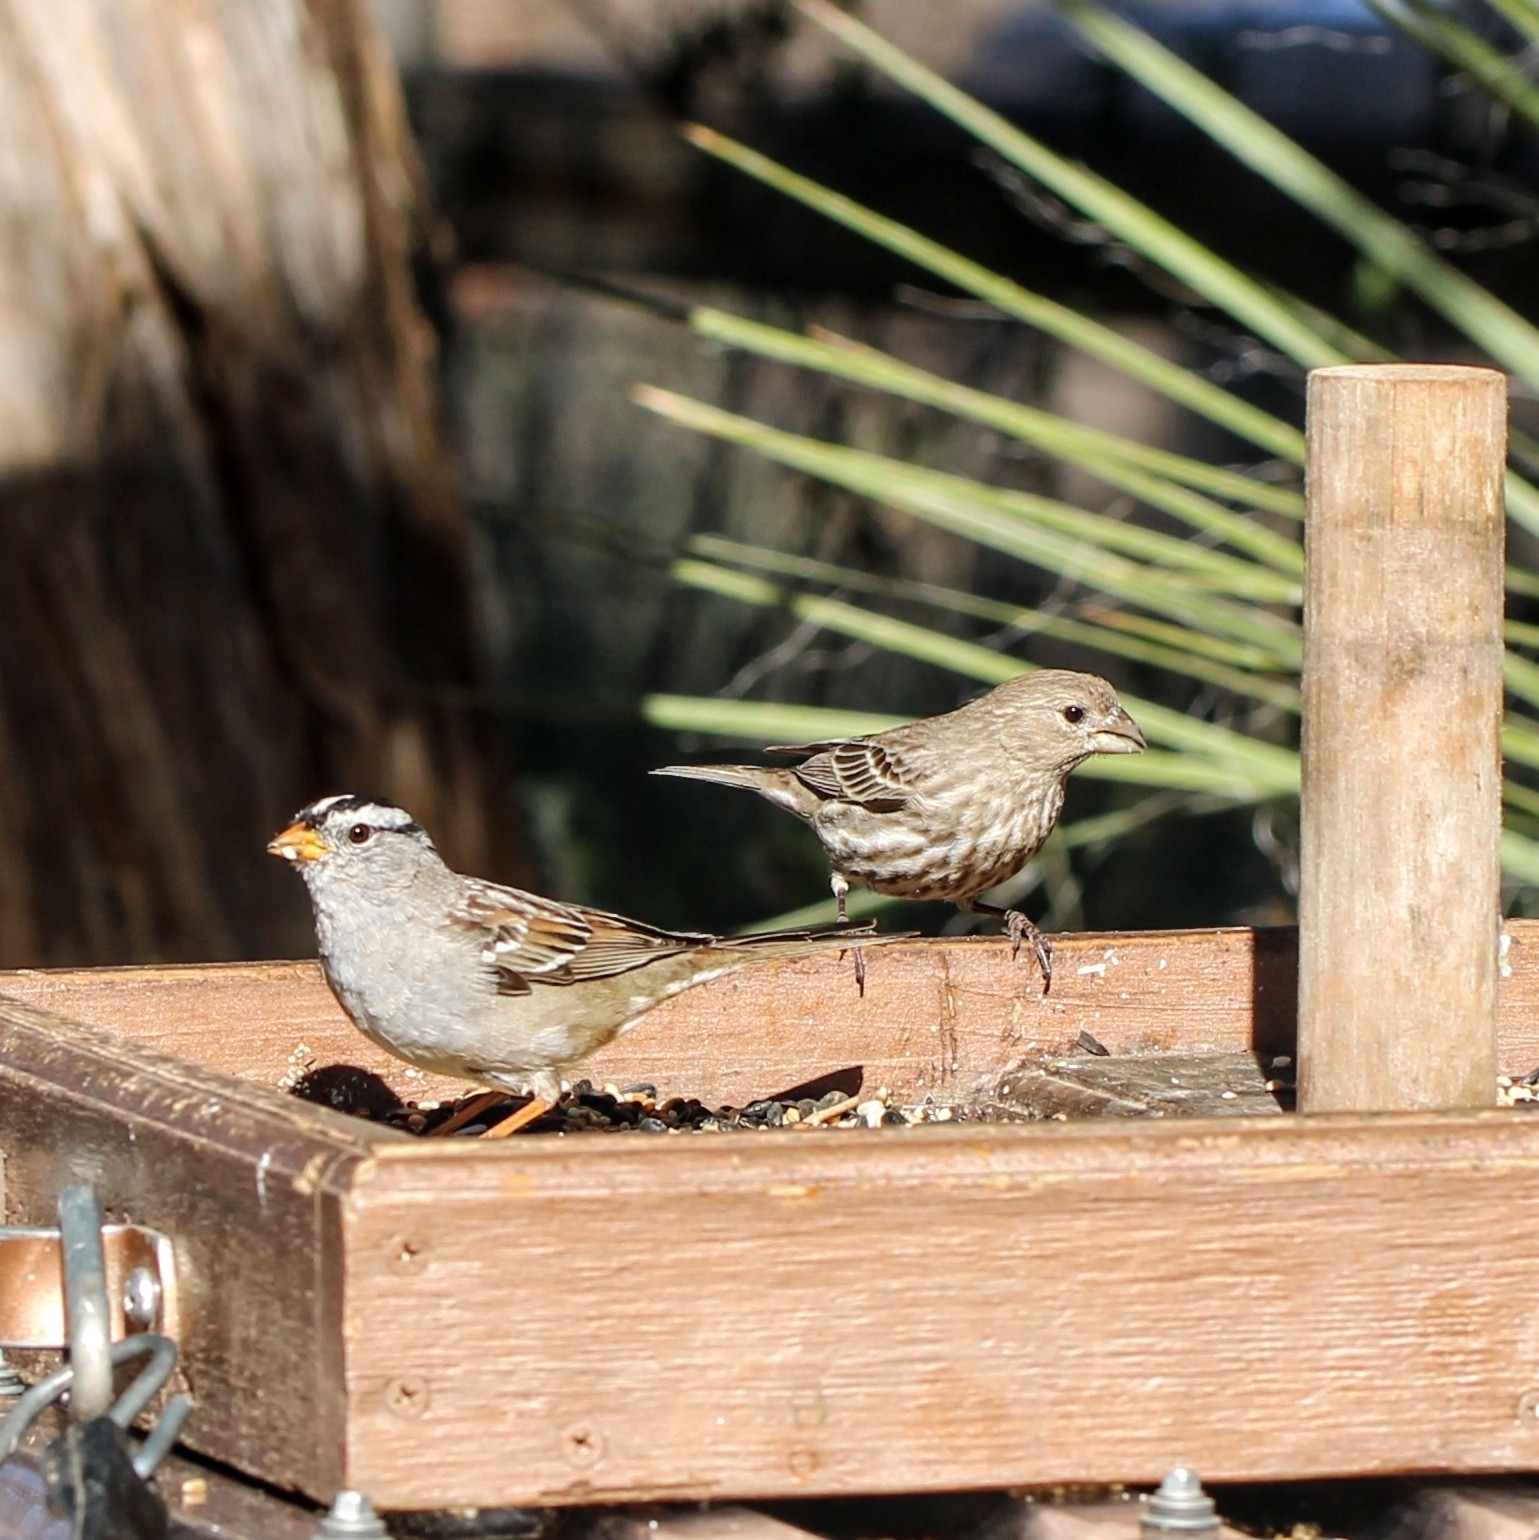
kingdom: Animalia
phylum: Chordata
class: Aves
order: Passeriformes
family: Passerellidae
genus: Zonotrichia
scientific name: Zonotrichia leucophrys
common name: White-crowned sparrow
